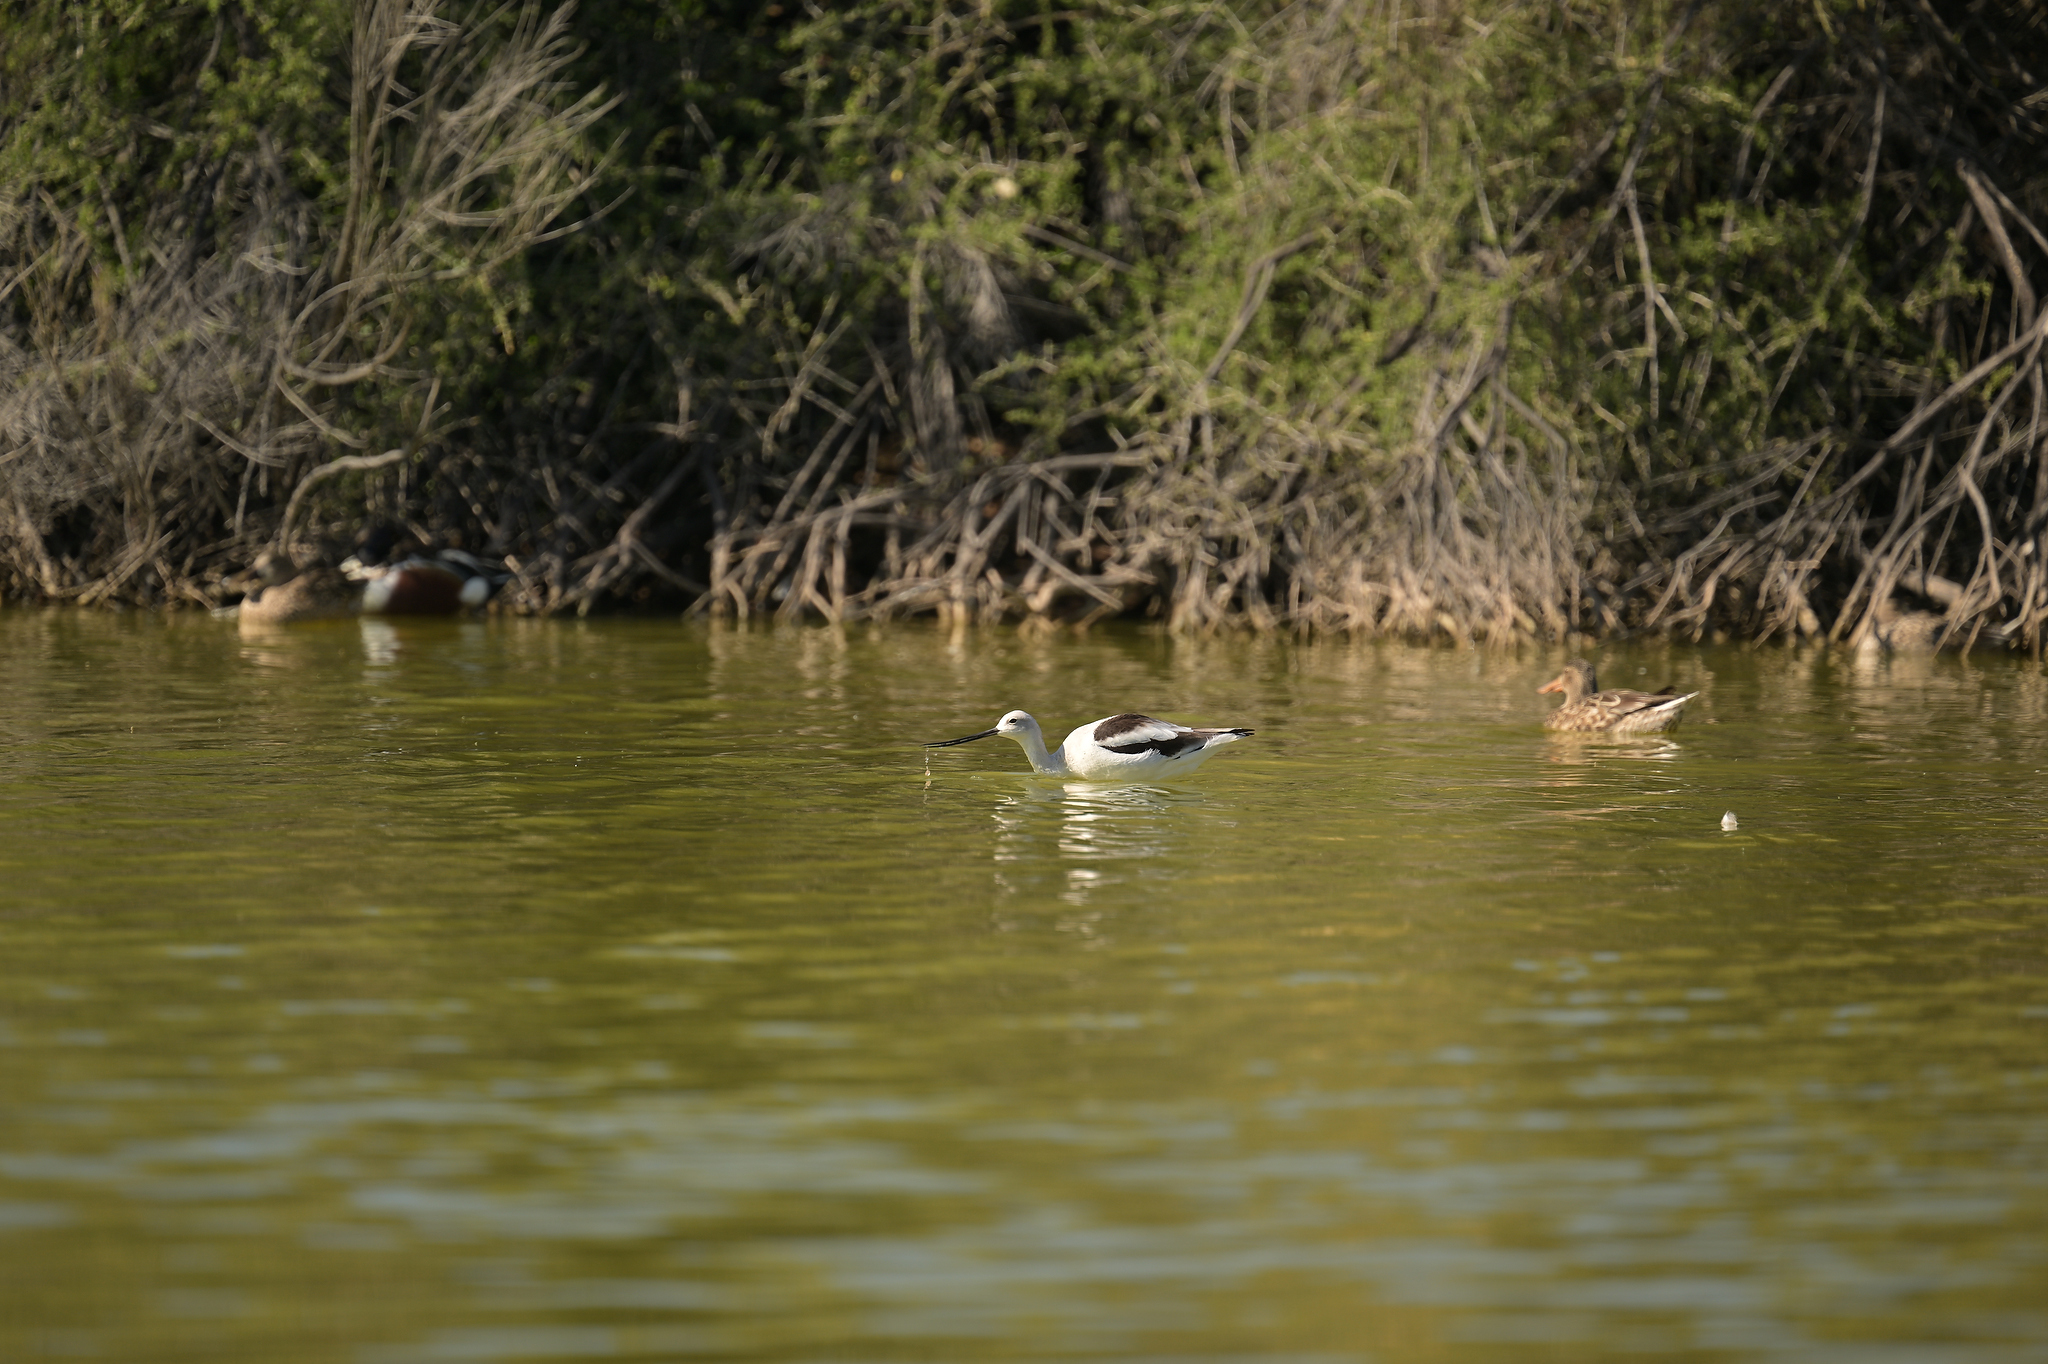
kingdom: Animalia
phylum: Chordata
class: Aves
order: Charadriiformes
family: Recurvirostridae
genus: Recurvirostra
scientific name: Recurvirostra americana
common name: American avocet
